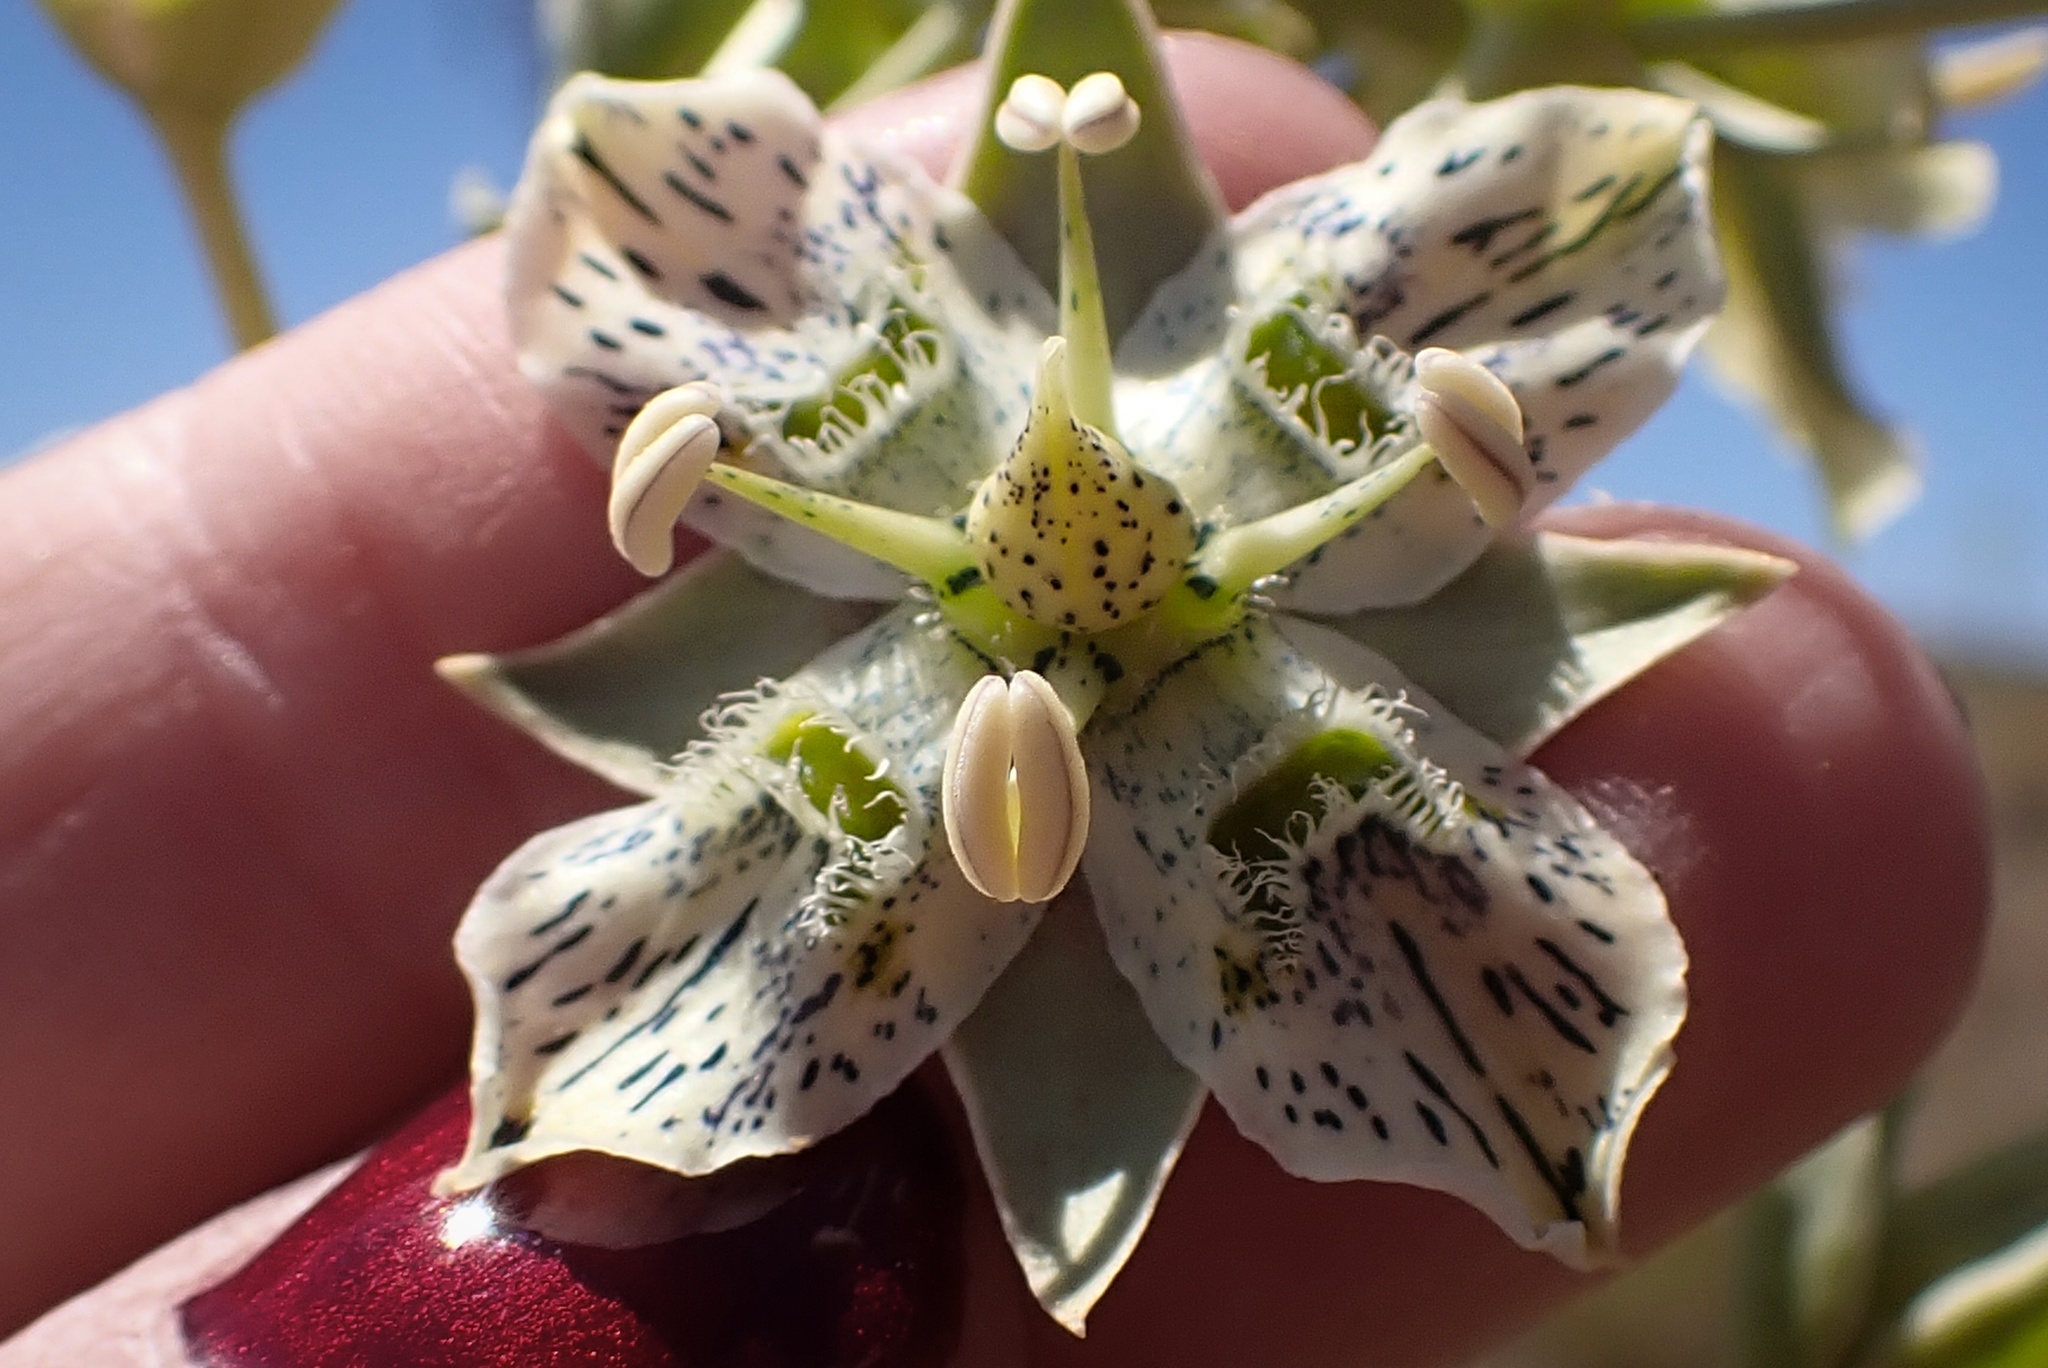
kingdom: Plantae
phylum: Tracheophyta
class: Magnoliopsida
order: Gentianales
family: Gentianaceae
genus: Frasera
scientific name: Frasera parryi
